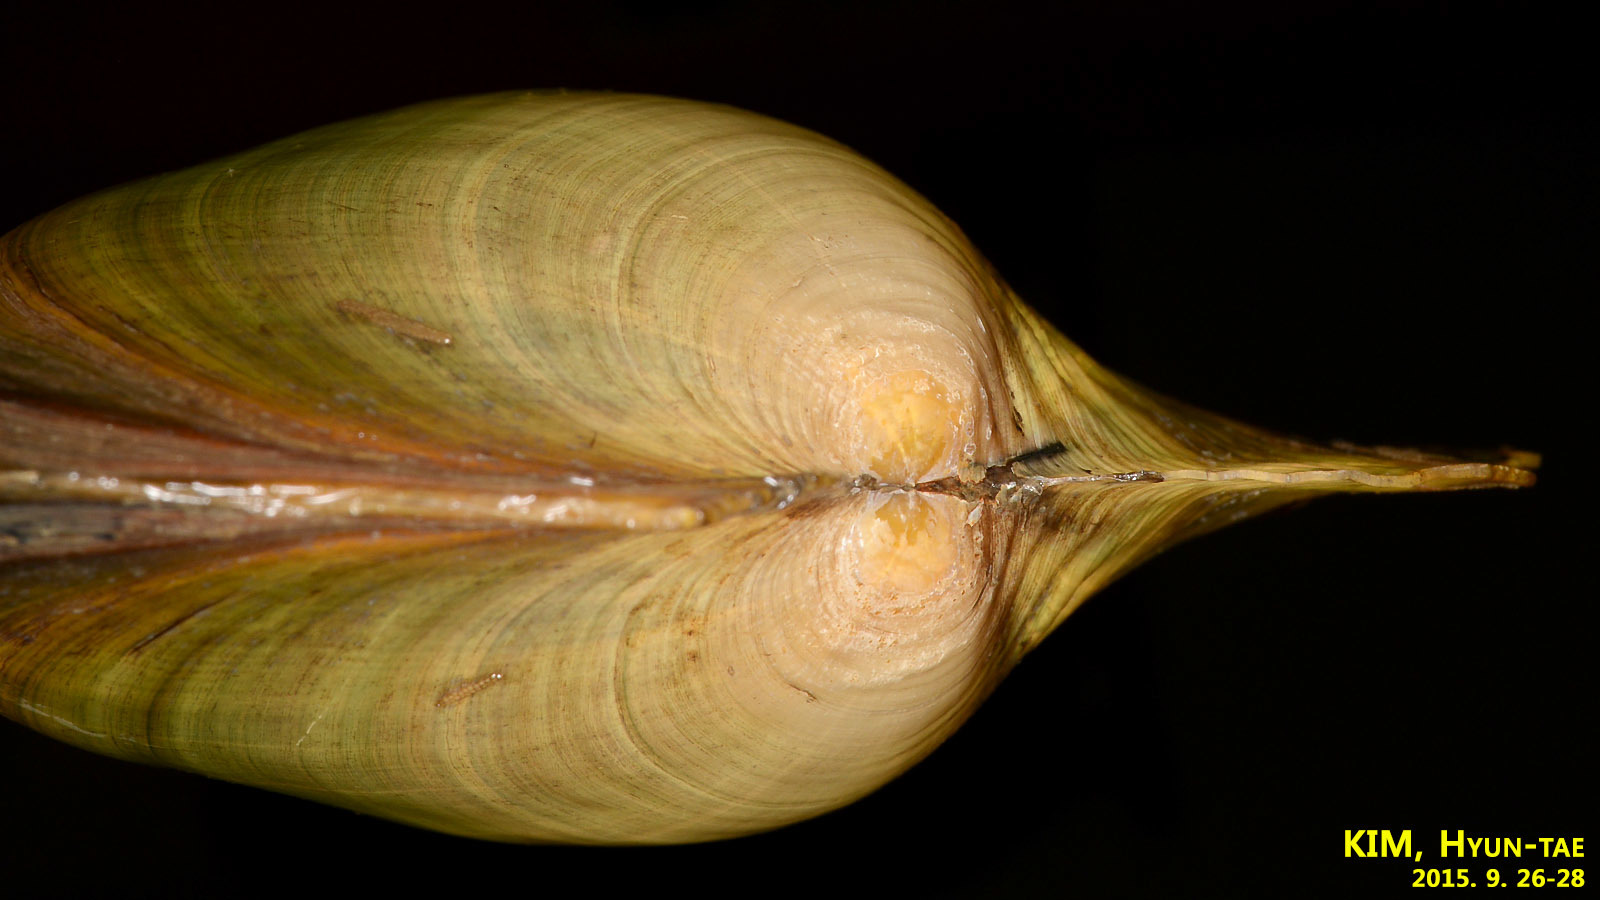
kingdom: Animalia
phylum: Mollusca
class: Bivalvia
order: Unionida
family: Unionidae
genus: Cristaria
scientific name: Cristaria plicata
